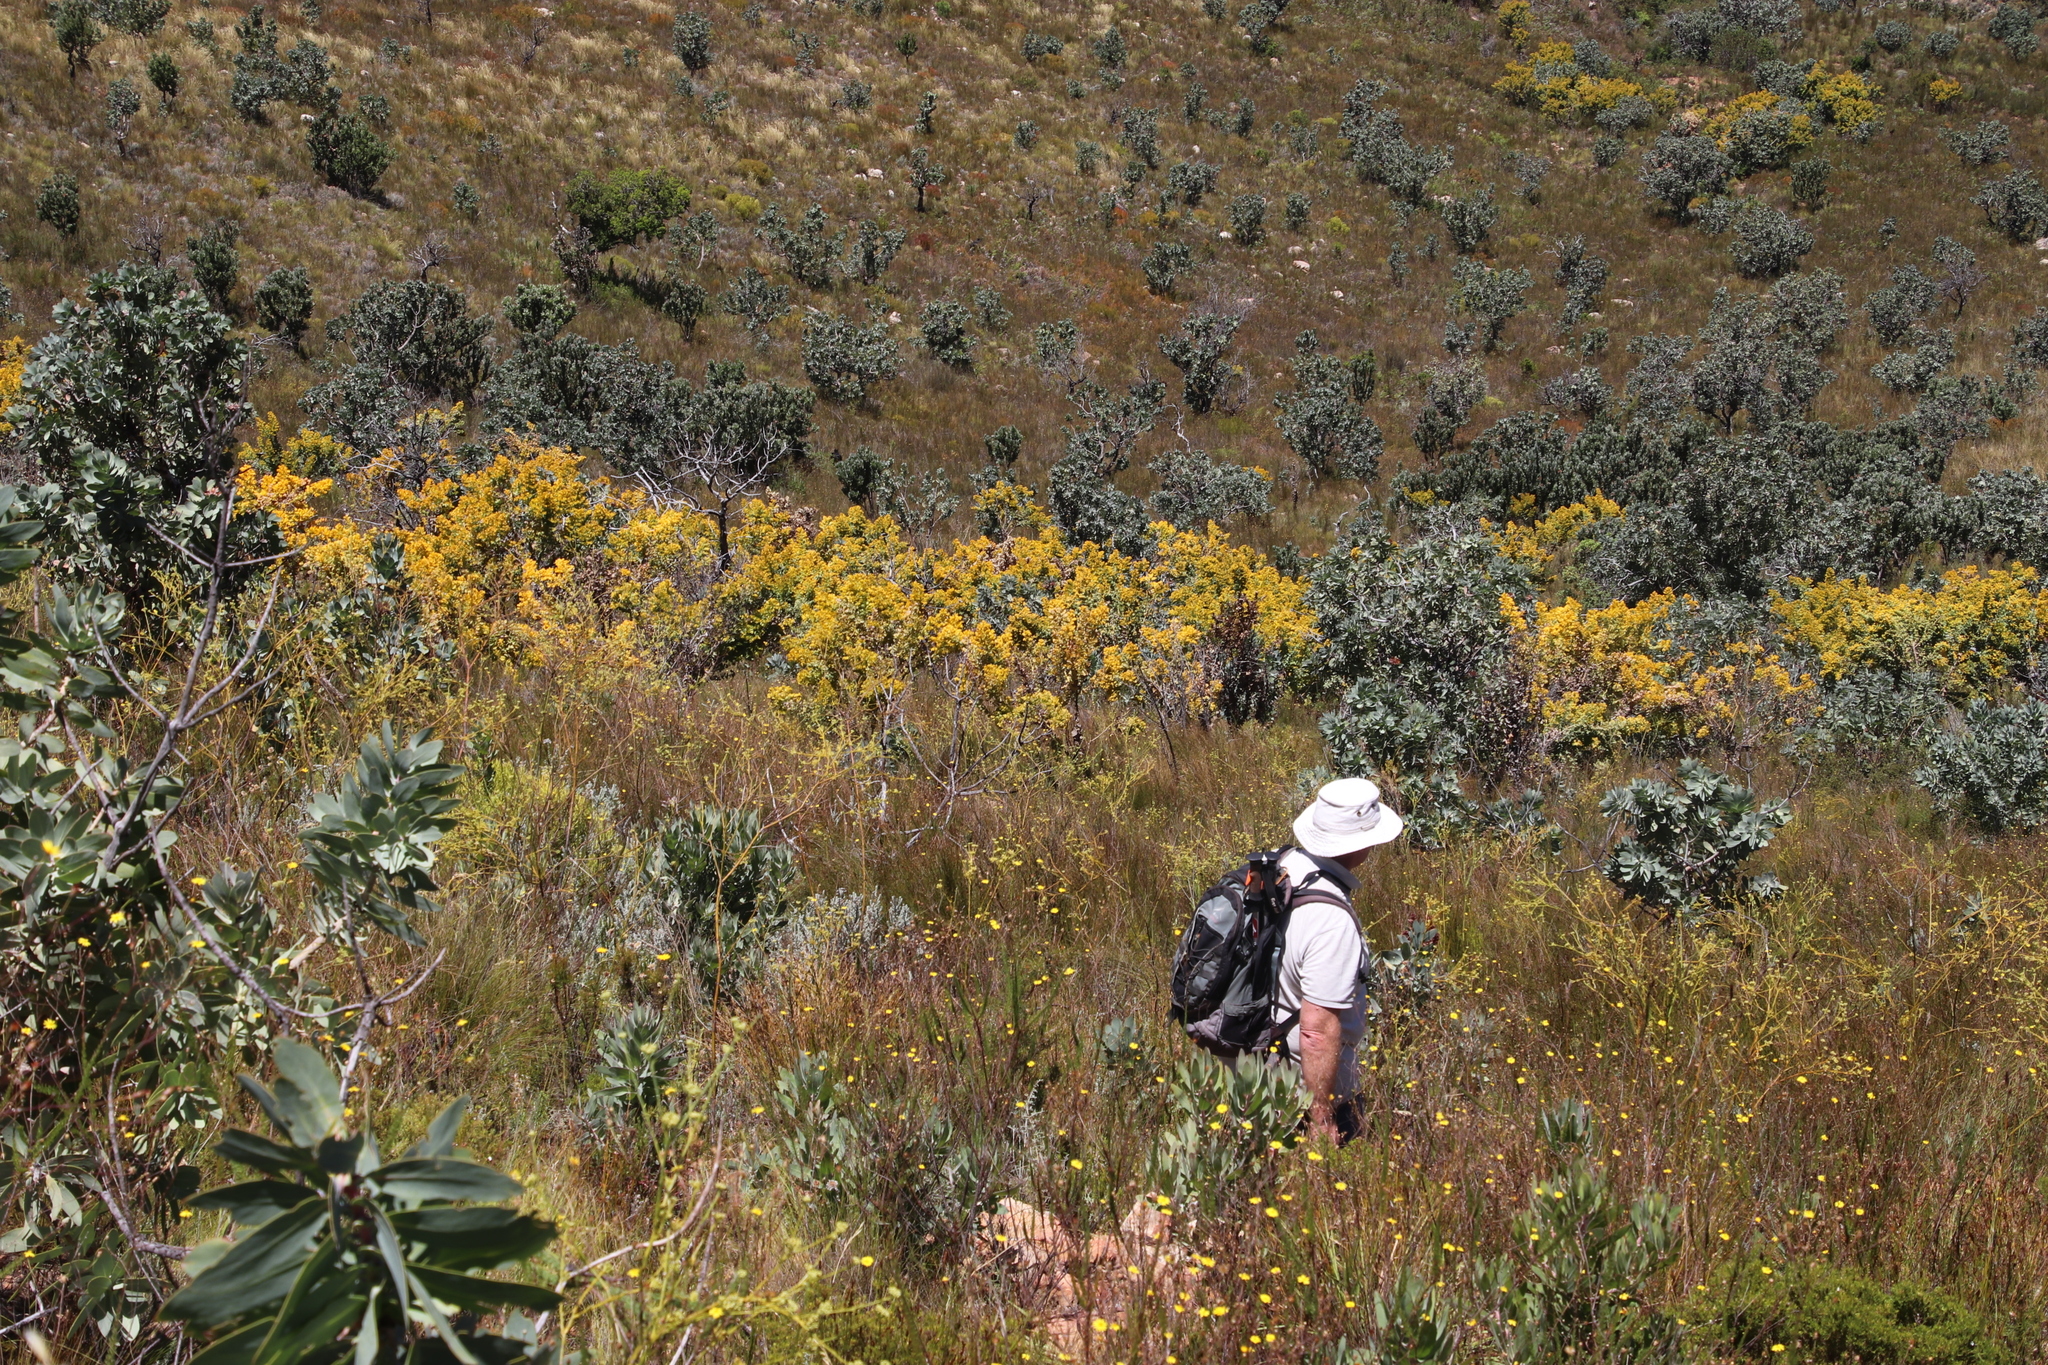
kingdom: Plantae
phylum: Tracheophyta
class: Magnoliopsida
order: Proteales
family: Proteaceae
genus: Protea
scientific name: Protea nitida
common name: Tree protea
